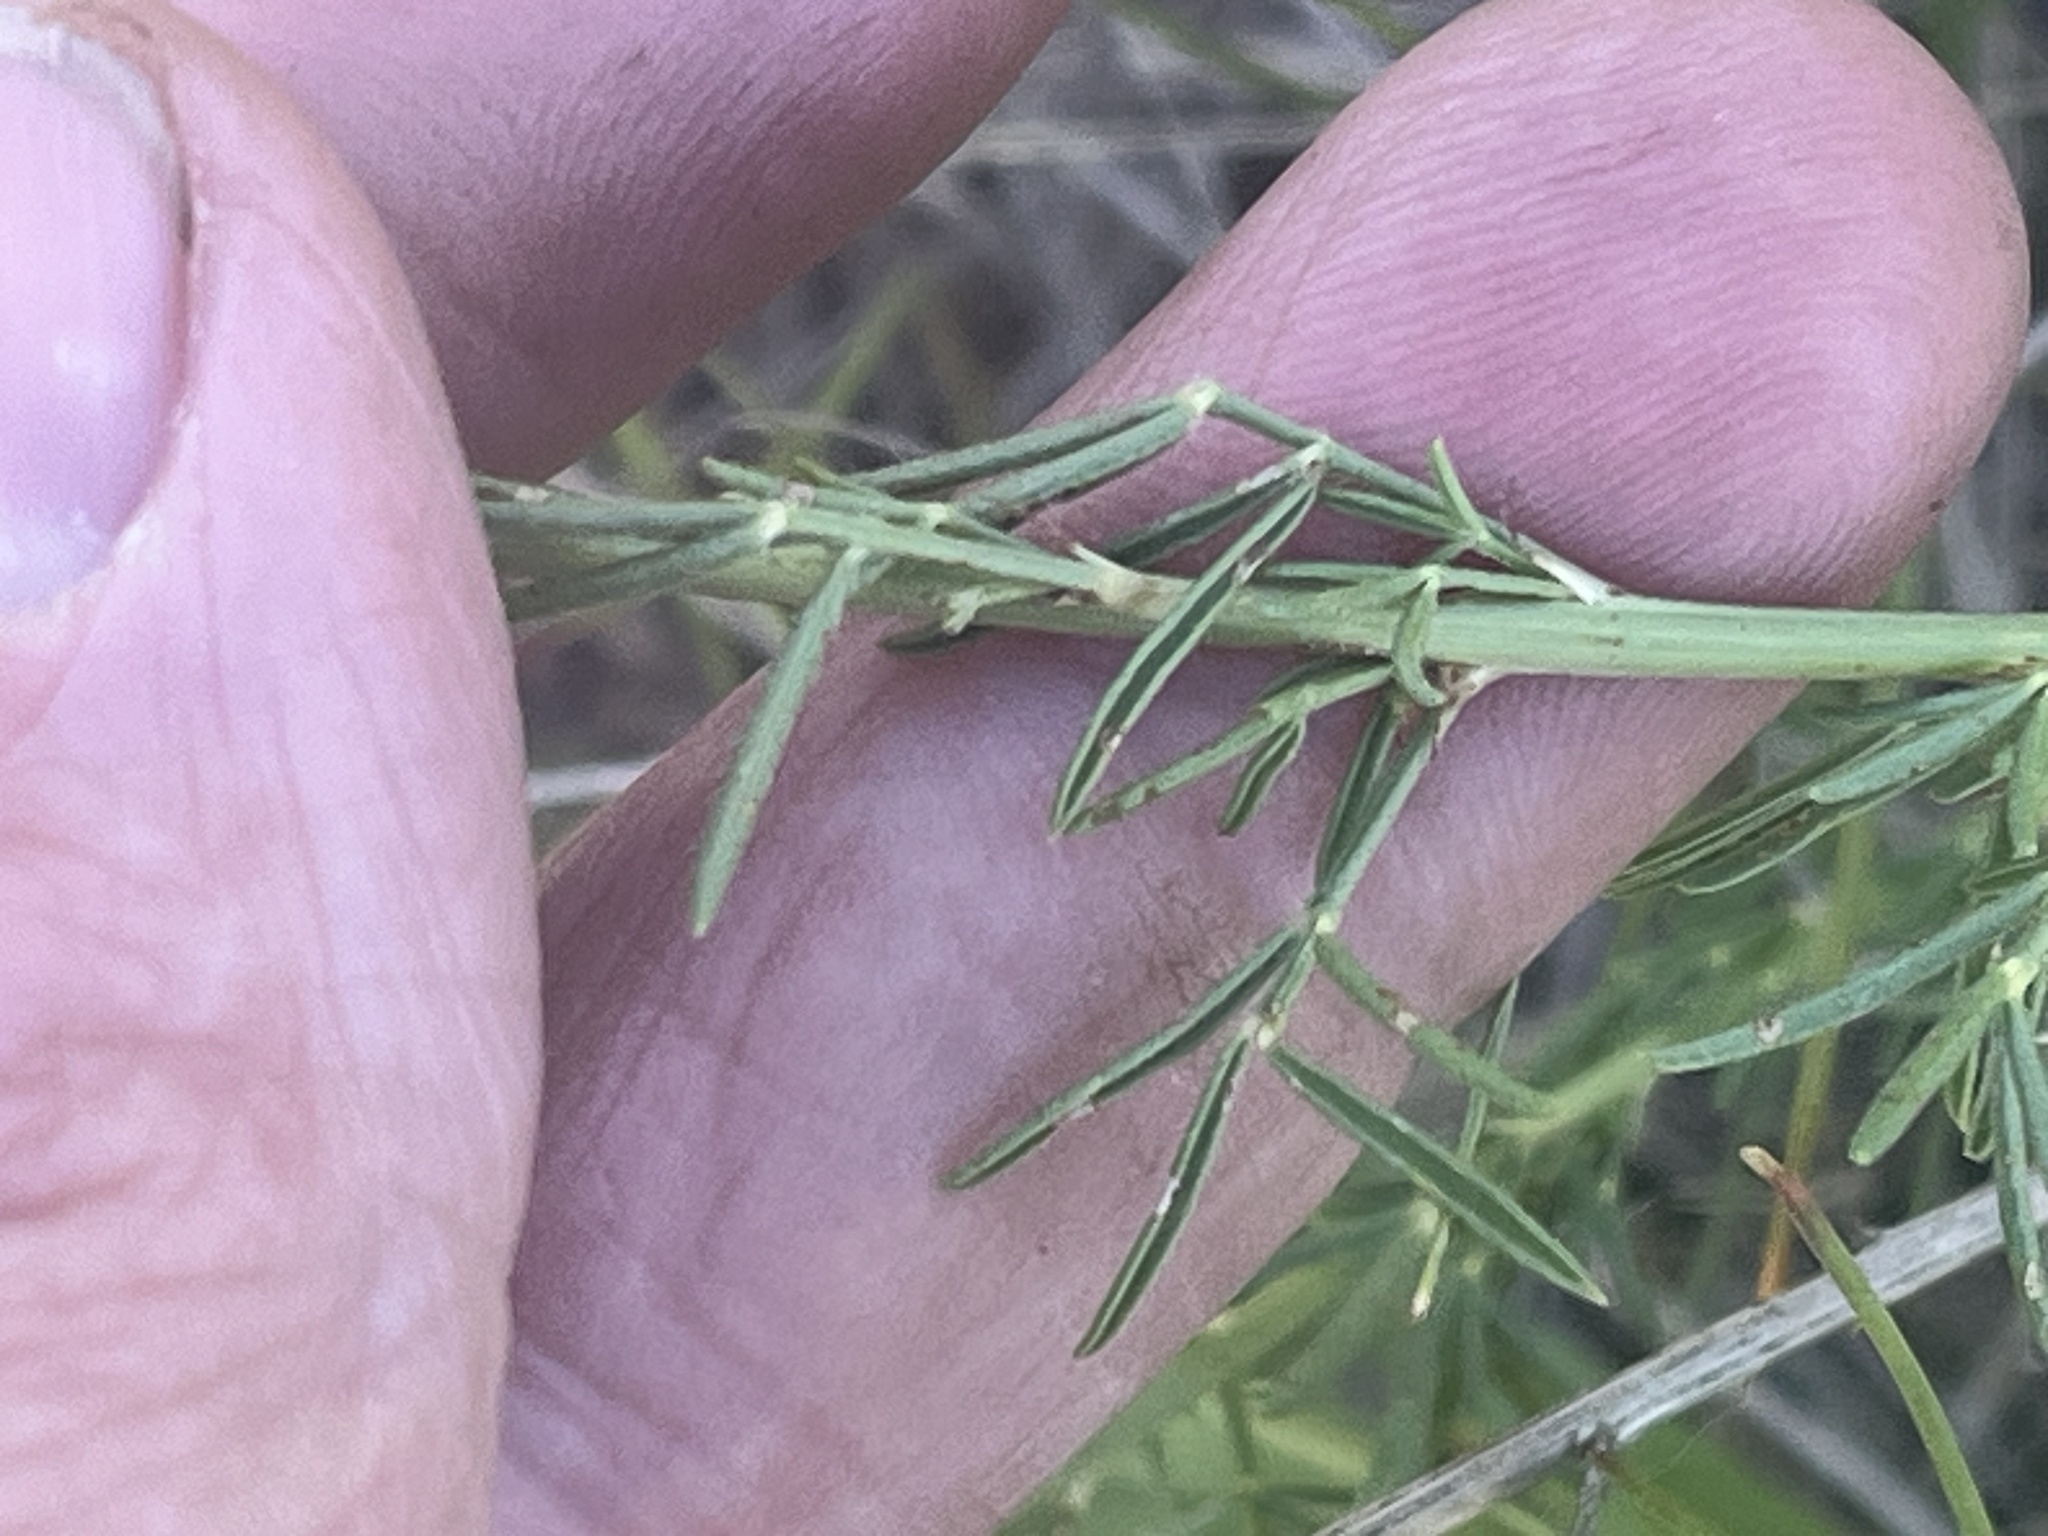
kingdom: Plantae
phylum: Tracheophyta
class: Magnoliopsida
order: Fabales
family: Fabaceae
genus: Dalea
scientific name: Dalea purpurea
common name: Purple prairie-clover
